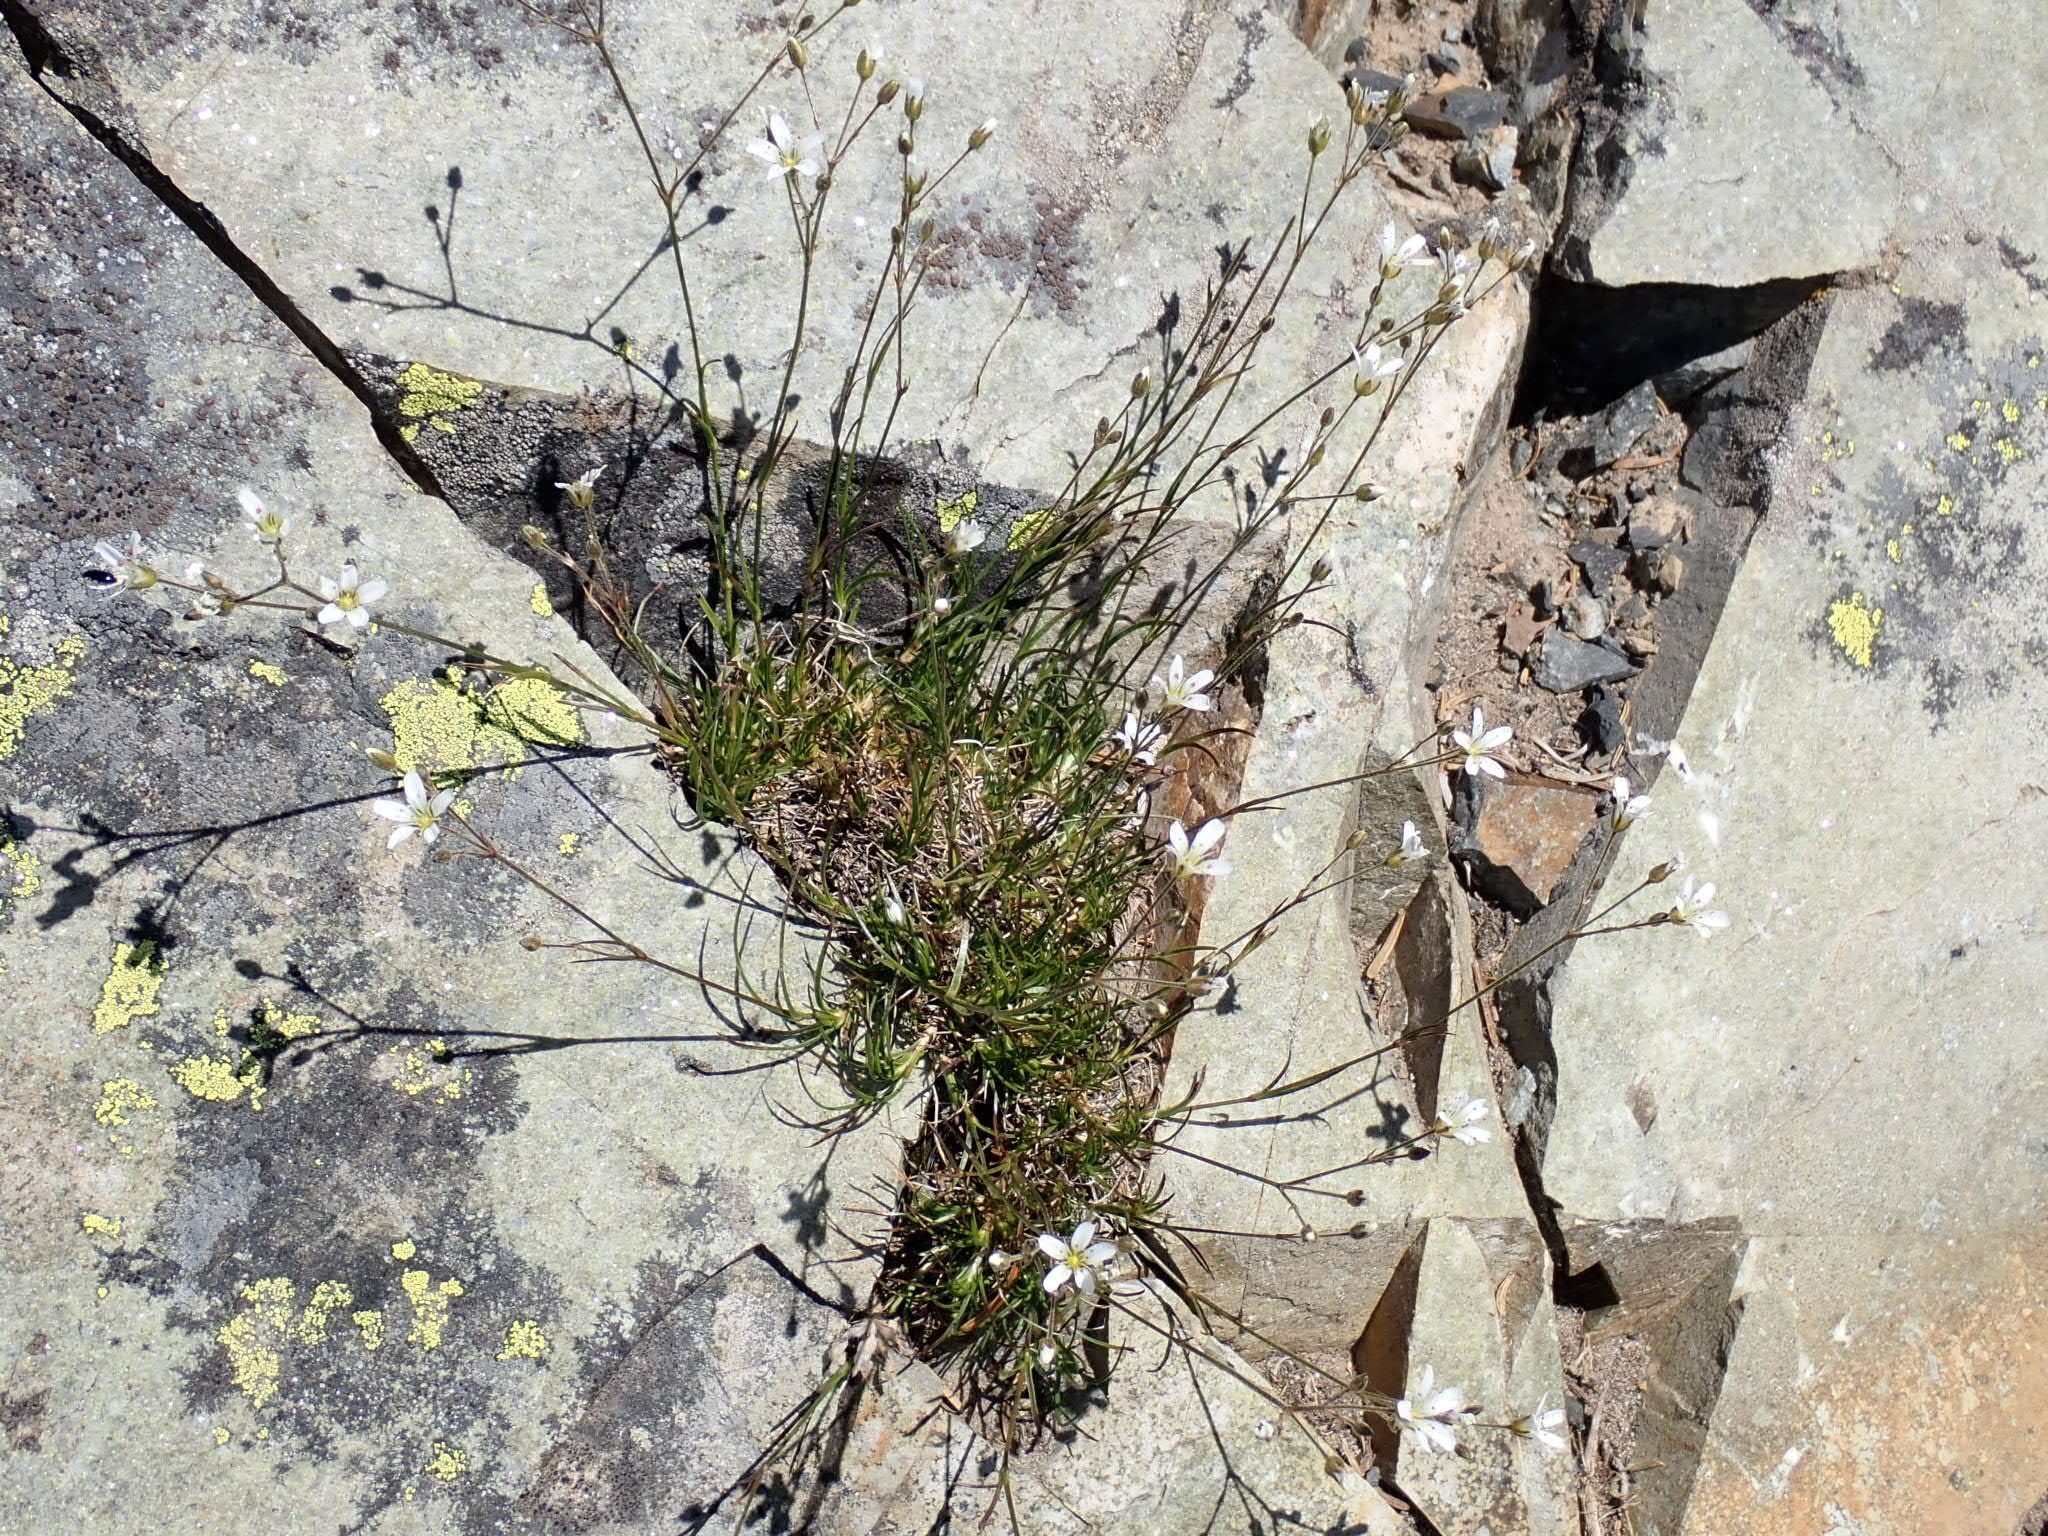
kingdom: Plantae
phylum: Tracheophyta
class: Magnoliopsida
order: Caryophyllales
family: Caryophyllaceae
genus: Eremogone
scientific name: Eremogone capillaris
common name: Slender mountain sandwort
